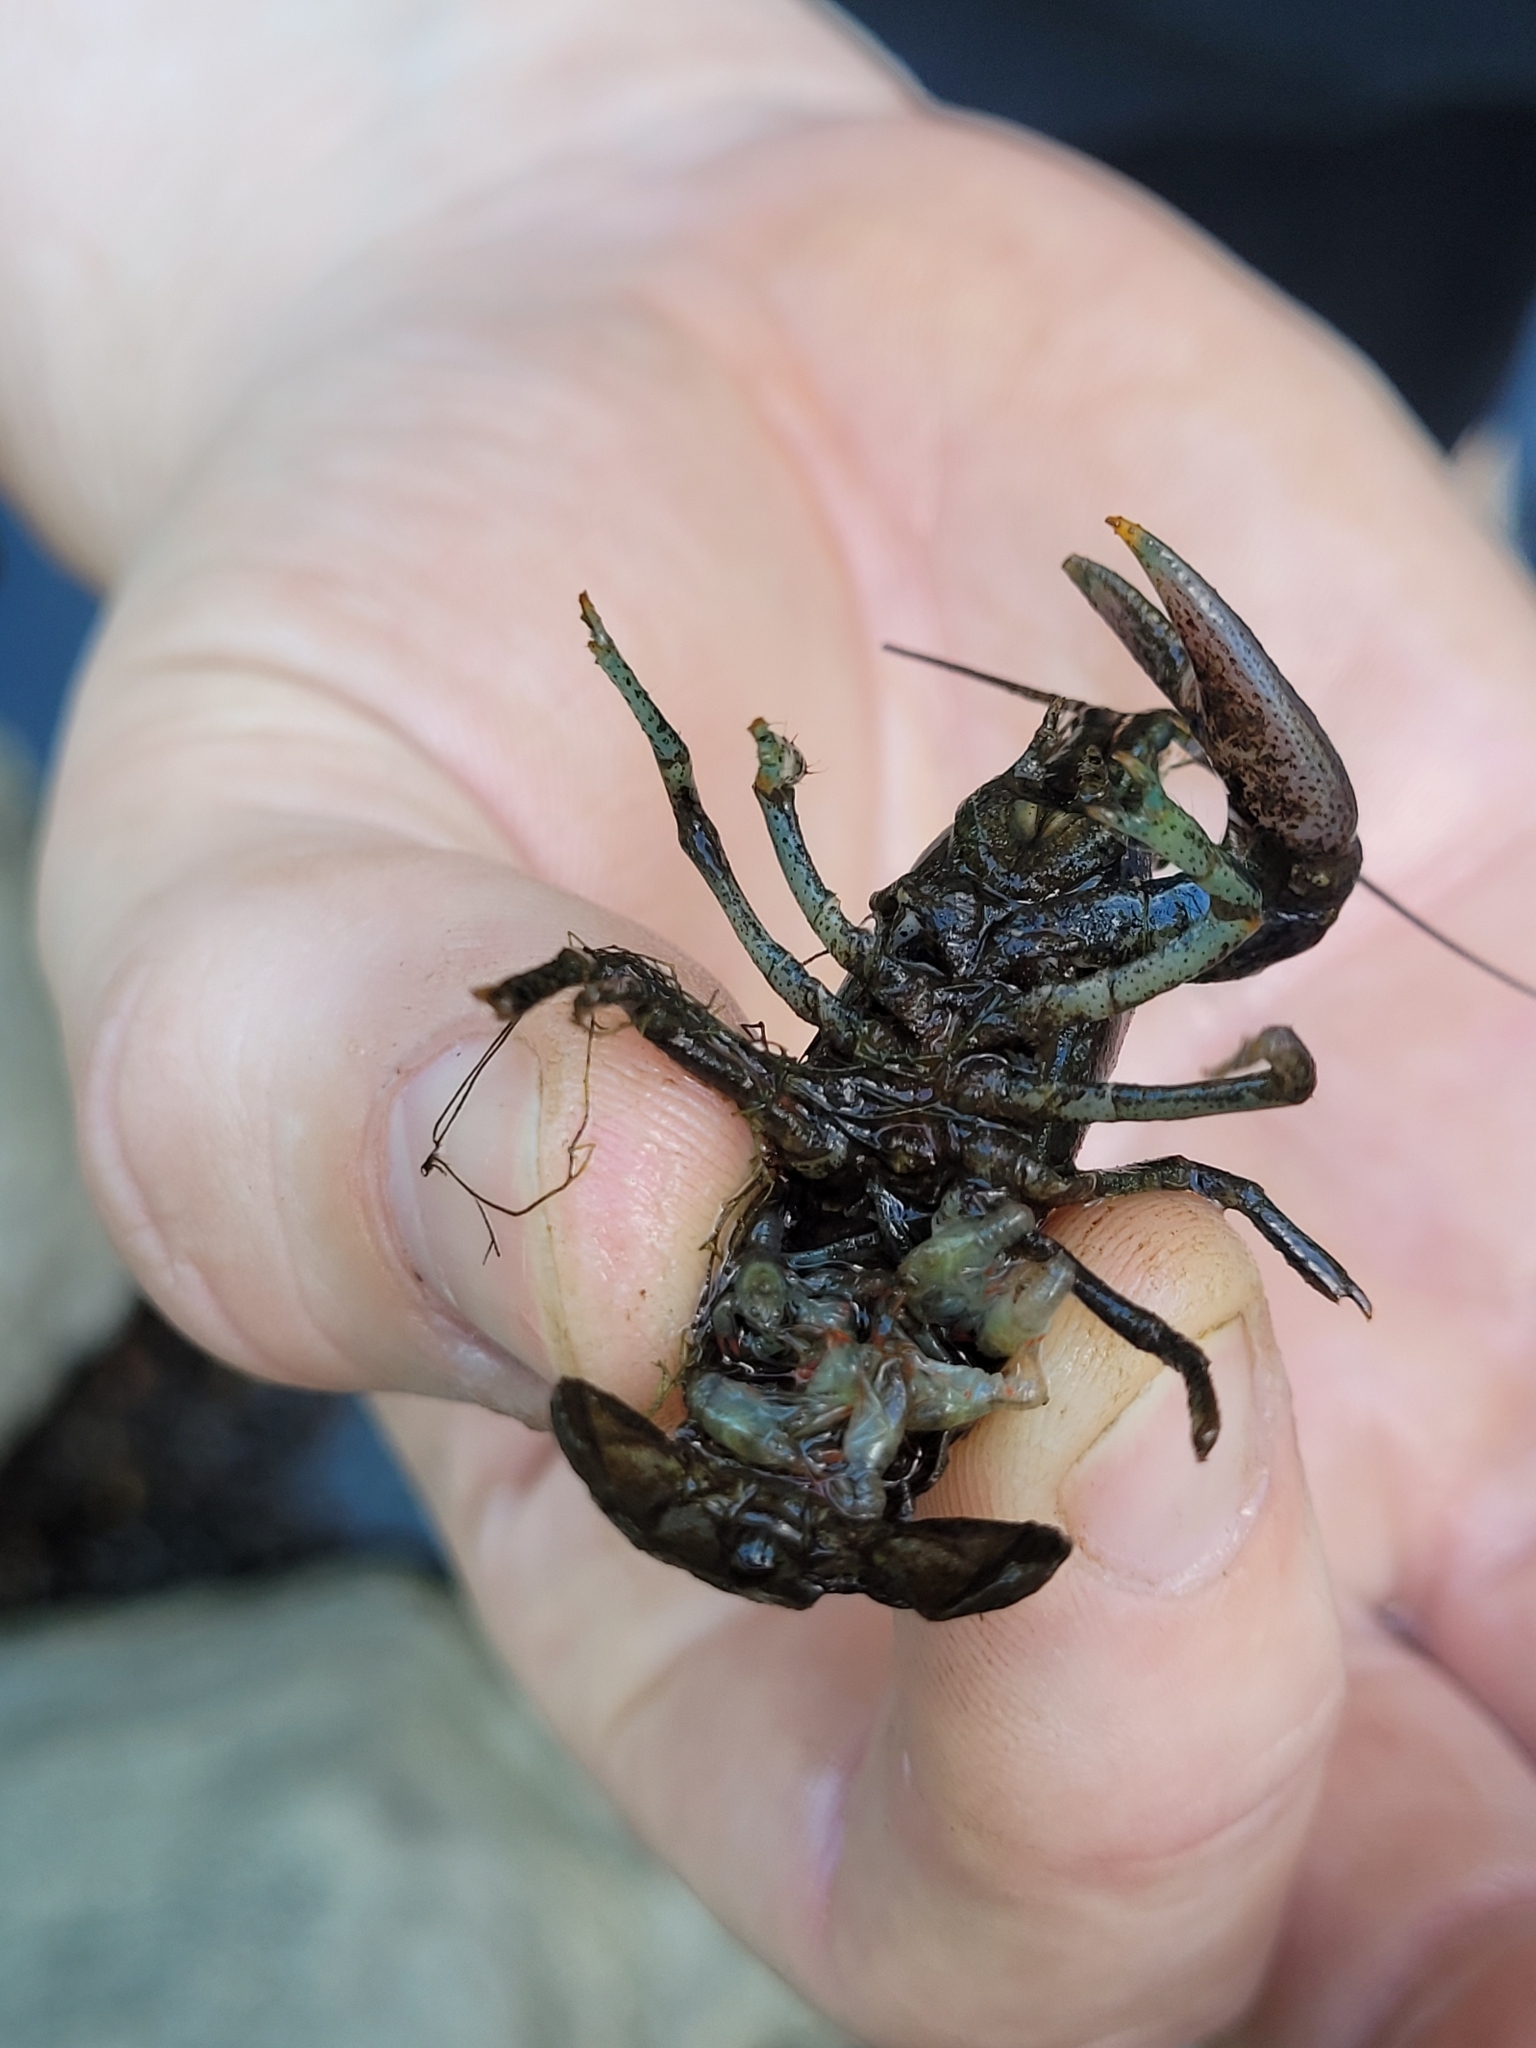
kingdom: Animalia
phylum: Arthropoda
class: Malacostraca
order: Decapoda
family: Cambaridae
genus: Faxonius
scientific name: Faxonius rusticus
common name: Rusty crayfish
